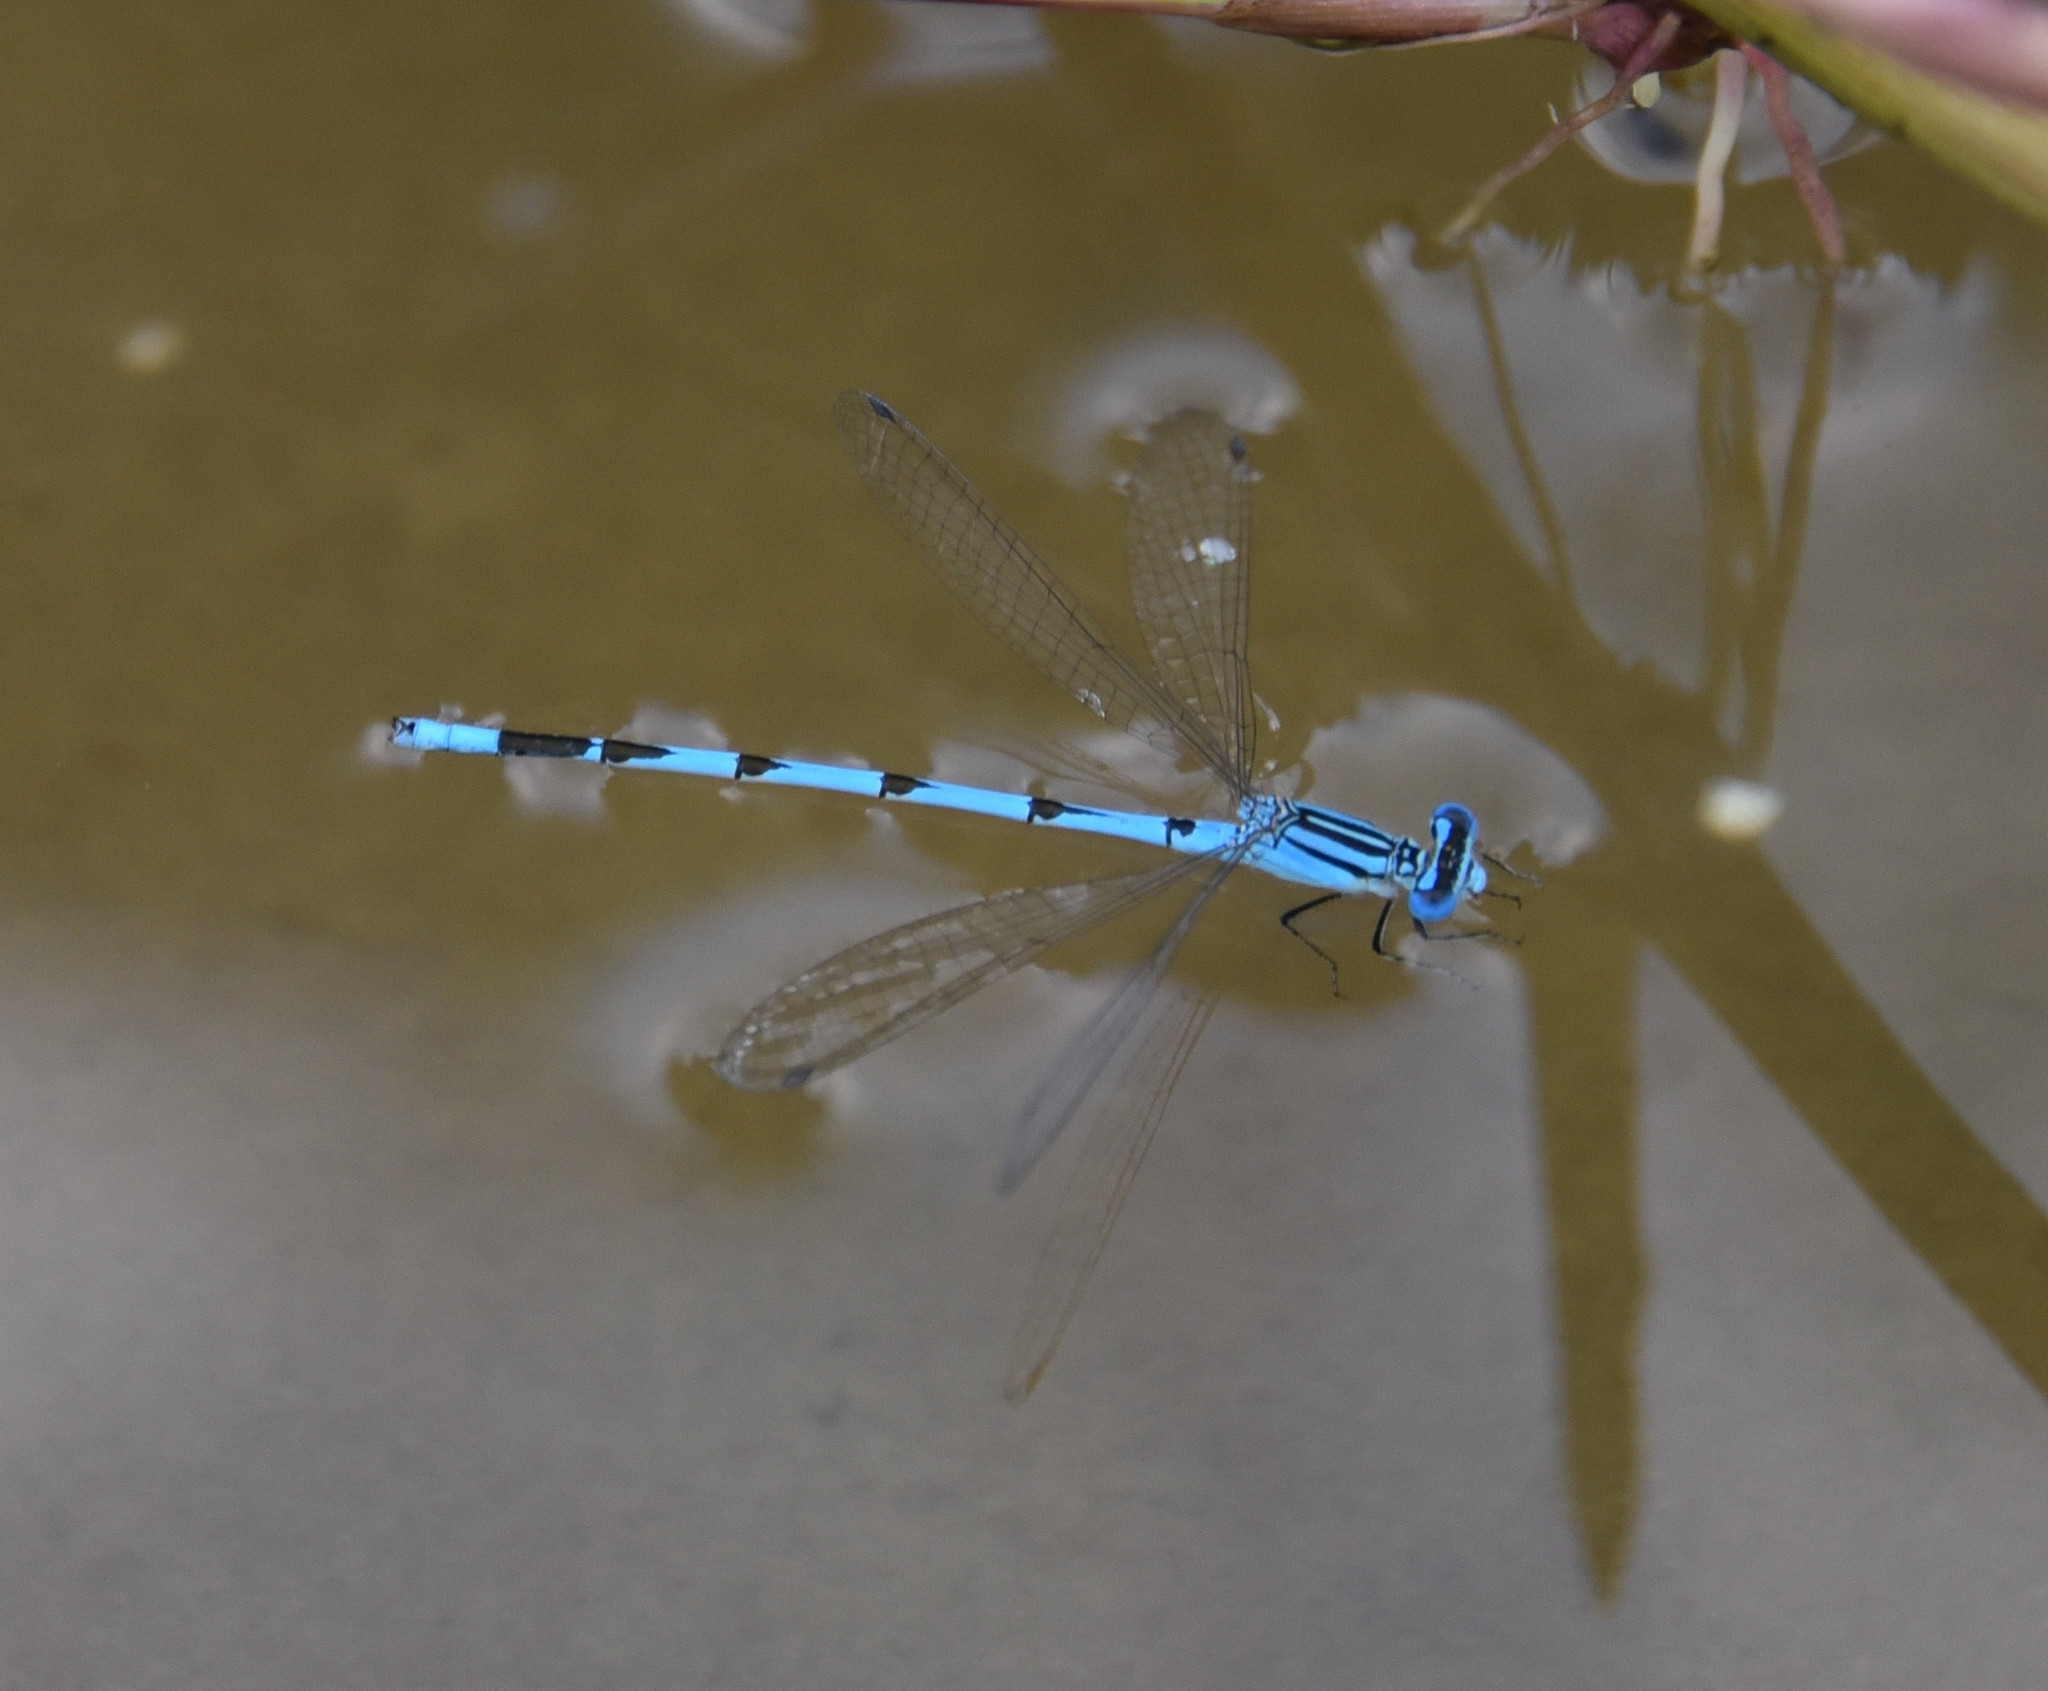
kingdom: Animalia
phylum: Arthropoda
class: Insecta
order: Odonata
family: Coenagrionidae
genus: Enallagma
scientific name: Enallagma durum
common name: Big bluet
